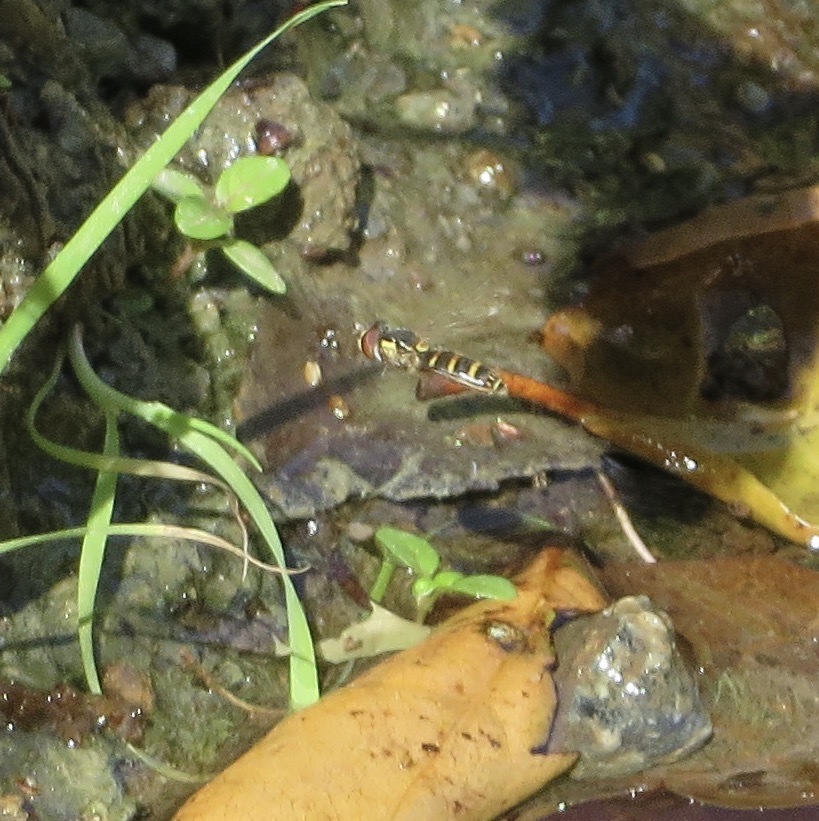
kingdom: Animalia
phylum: Arthropoda
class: Insecta
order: Diptera
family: Syrphidae
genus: Fazia
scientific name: Fazia micrura
